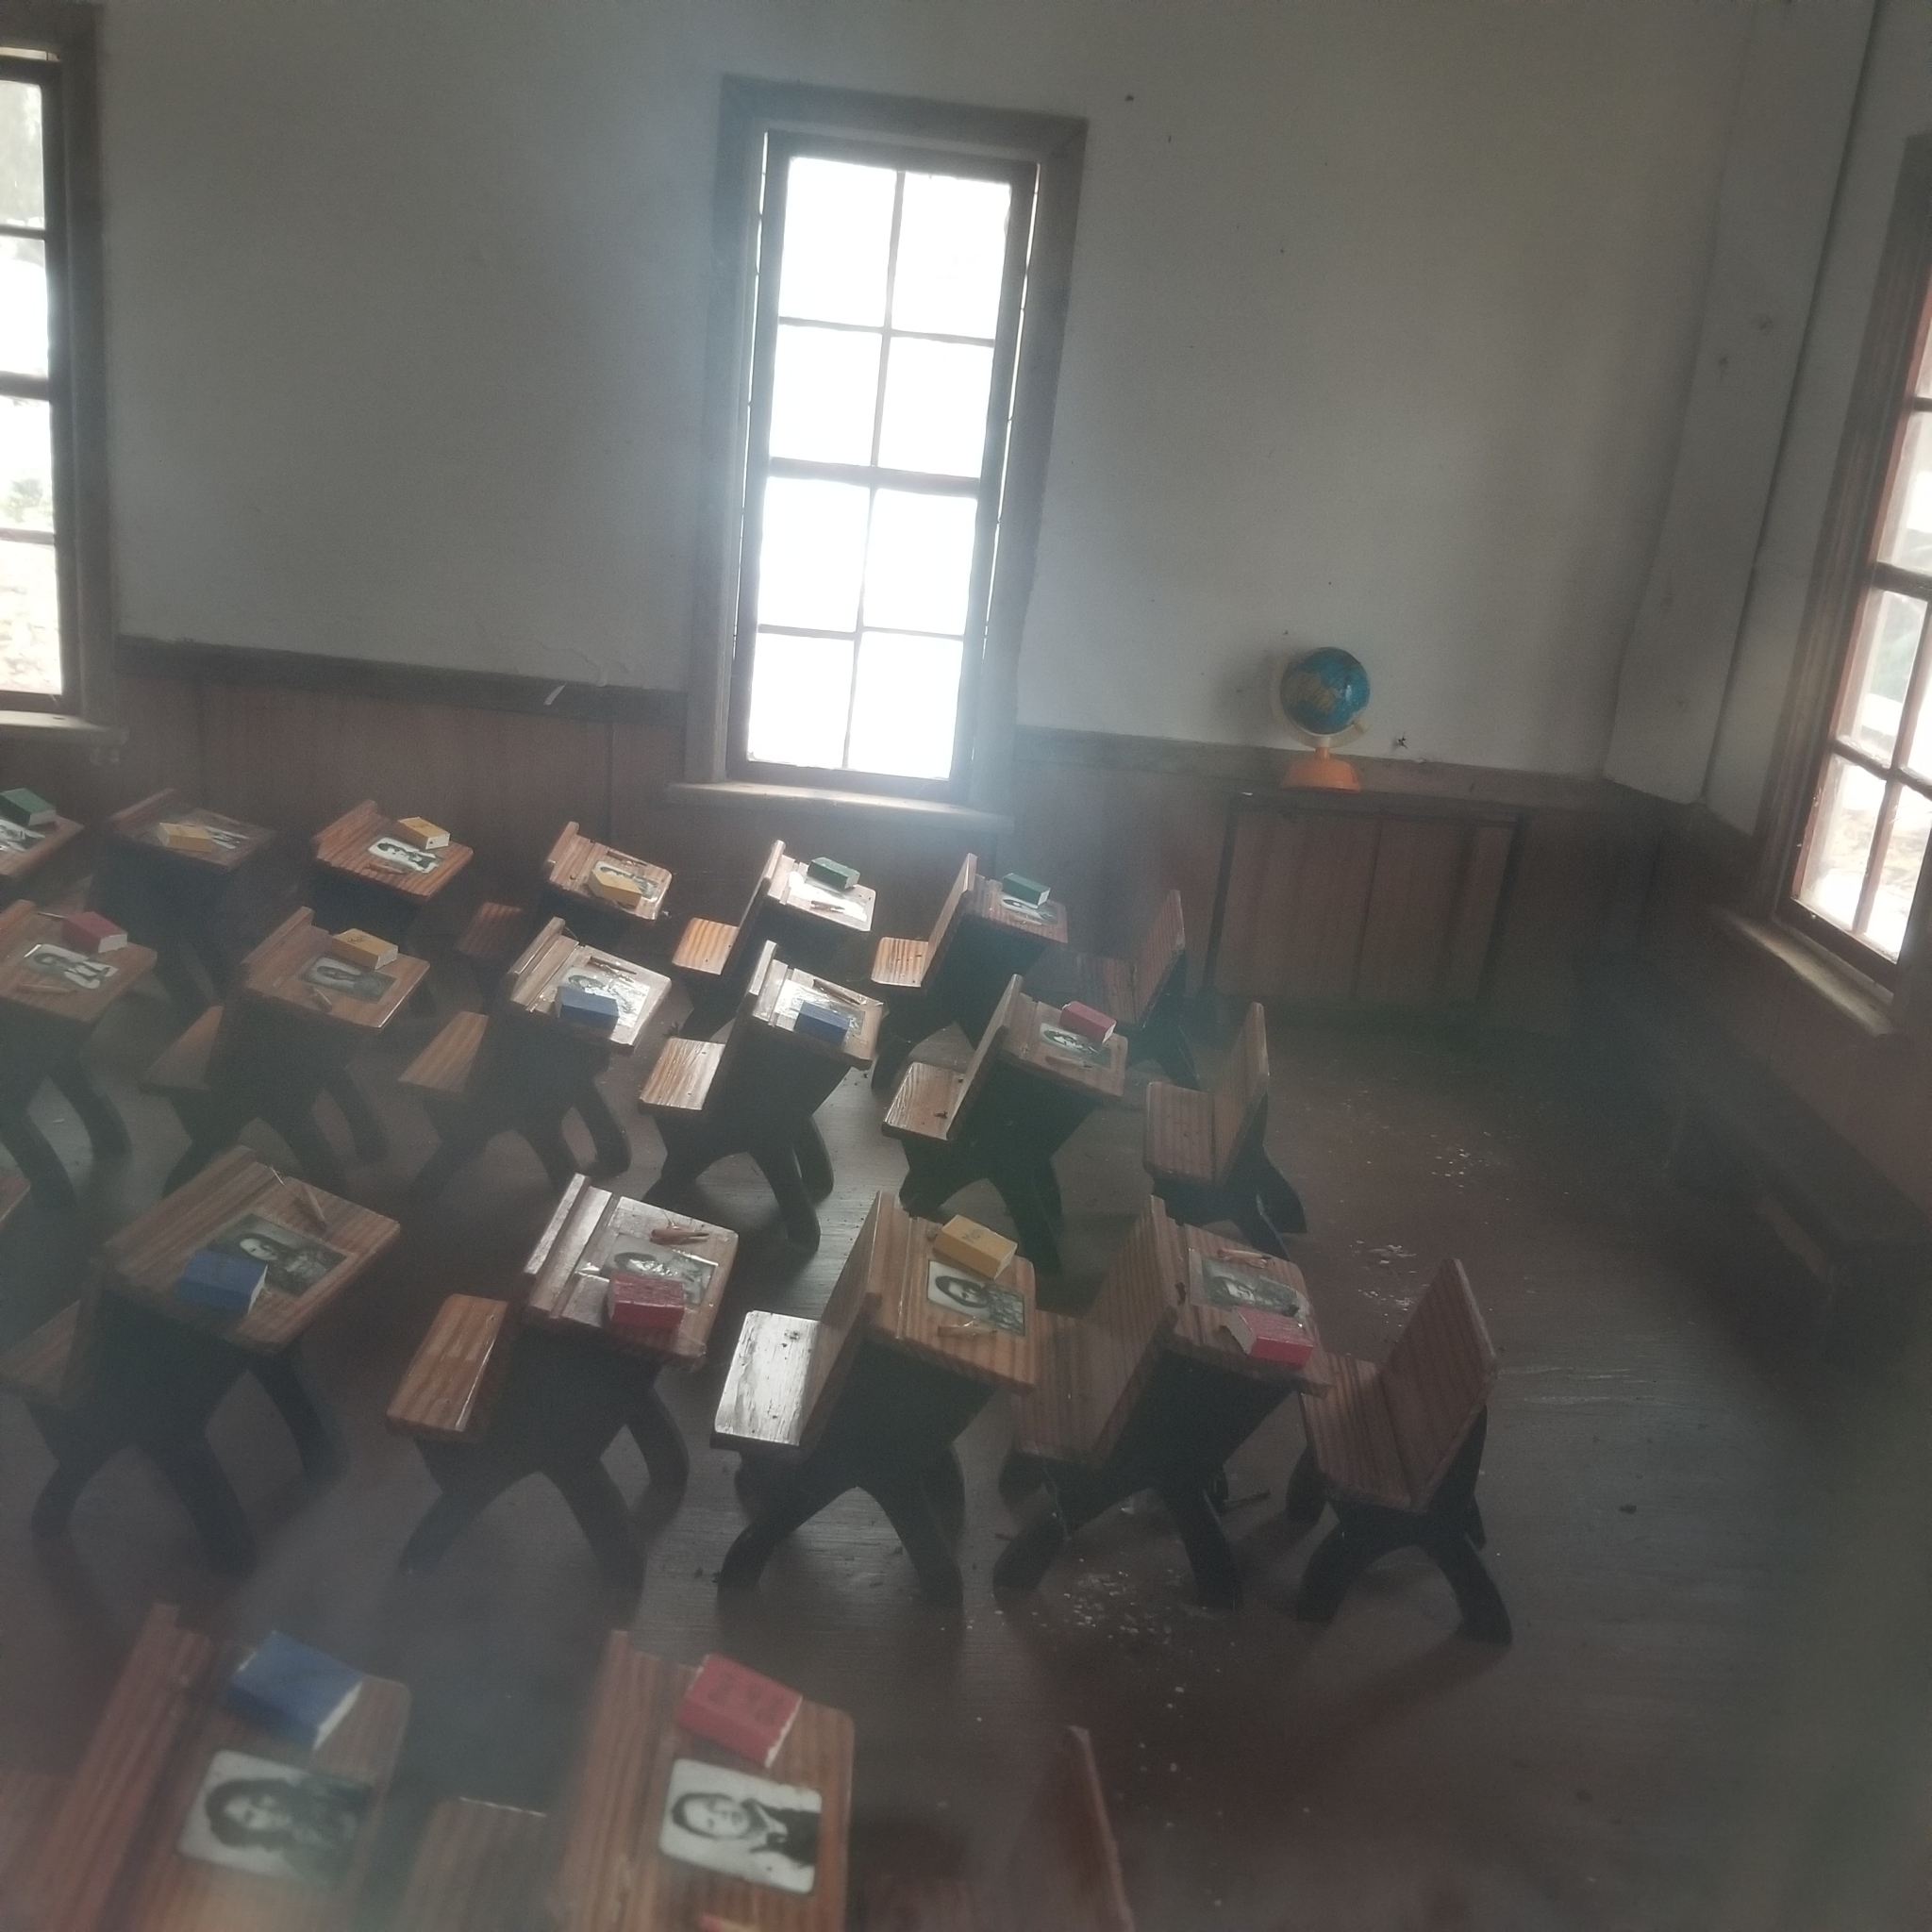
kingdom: Fungi
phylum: Basidiomycota
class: Agaricomycetes
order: Agaricales
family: Nidulariaceae
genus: Crucibulum
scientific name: Crucibulum laeve
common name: Common bird's nest
